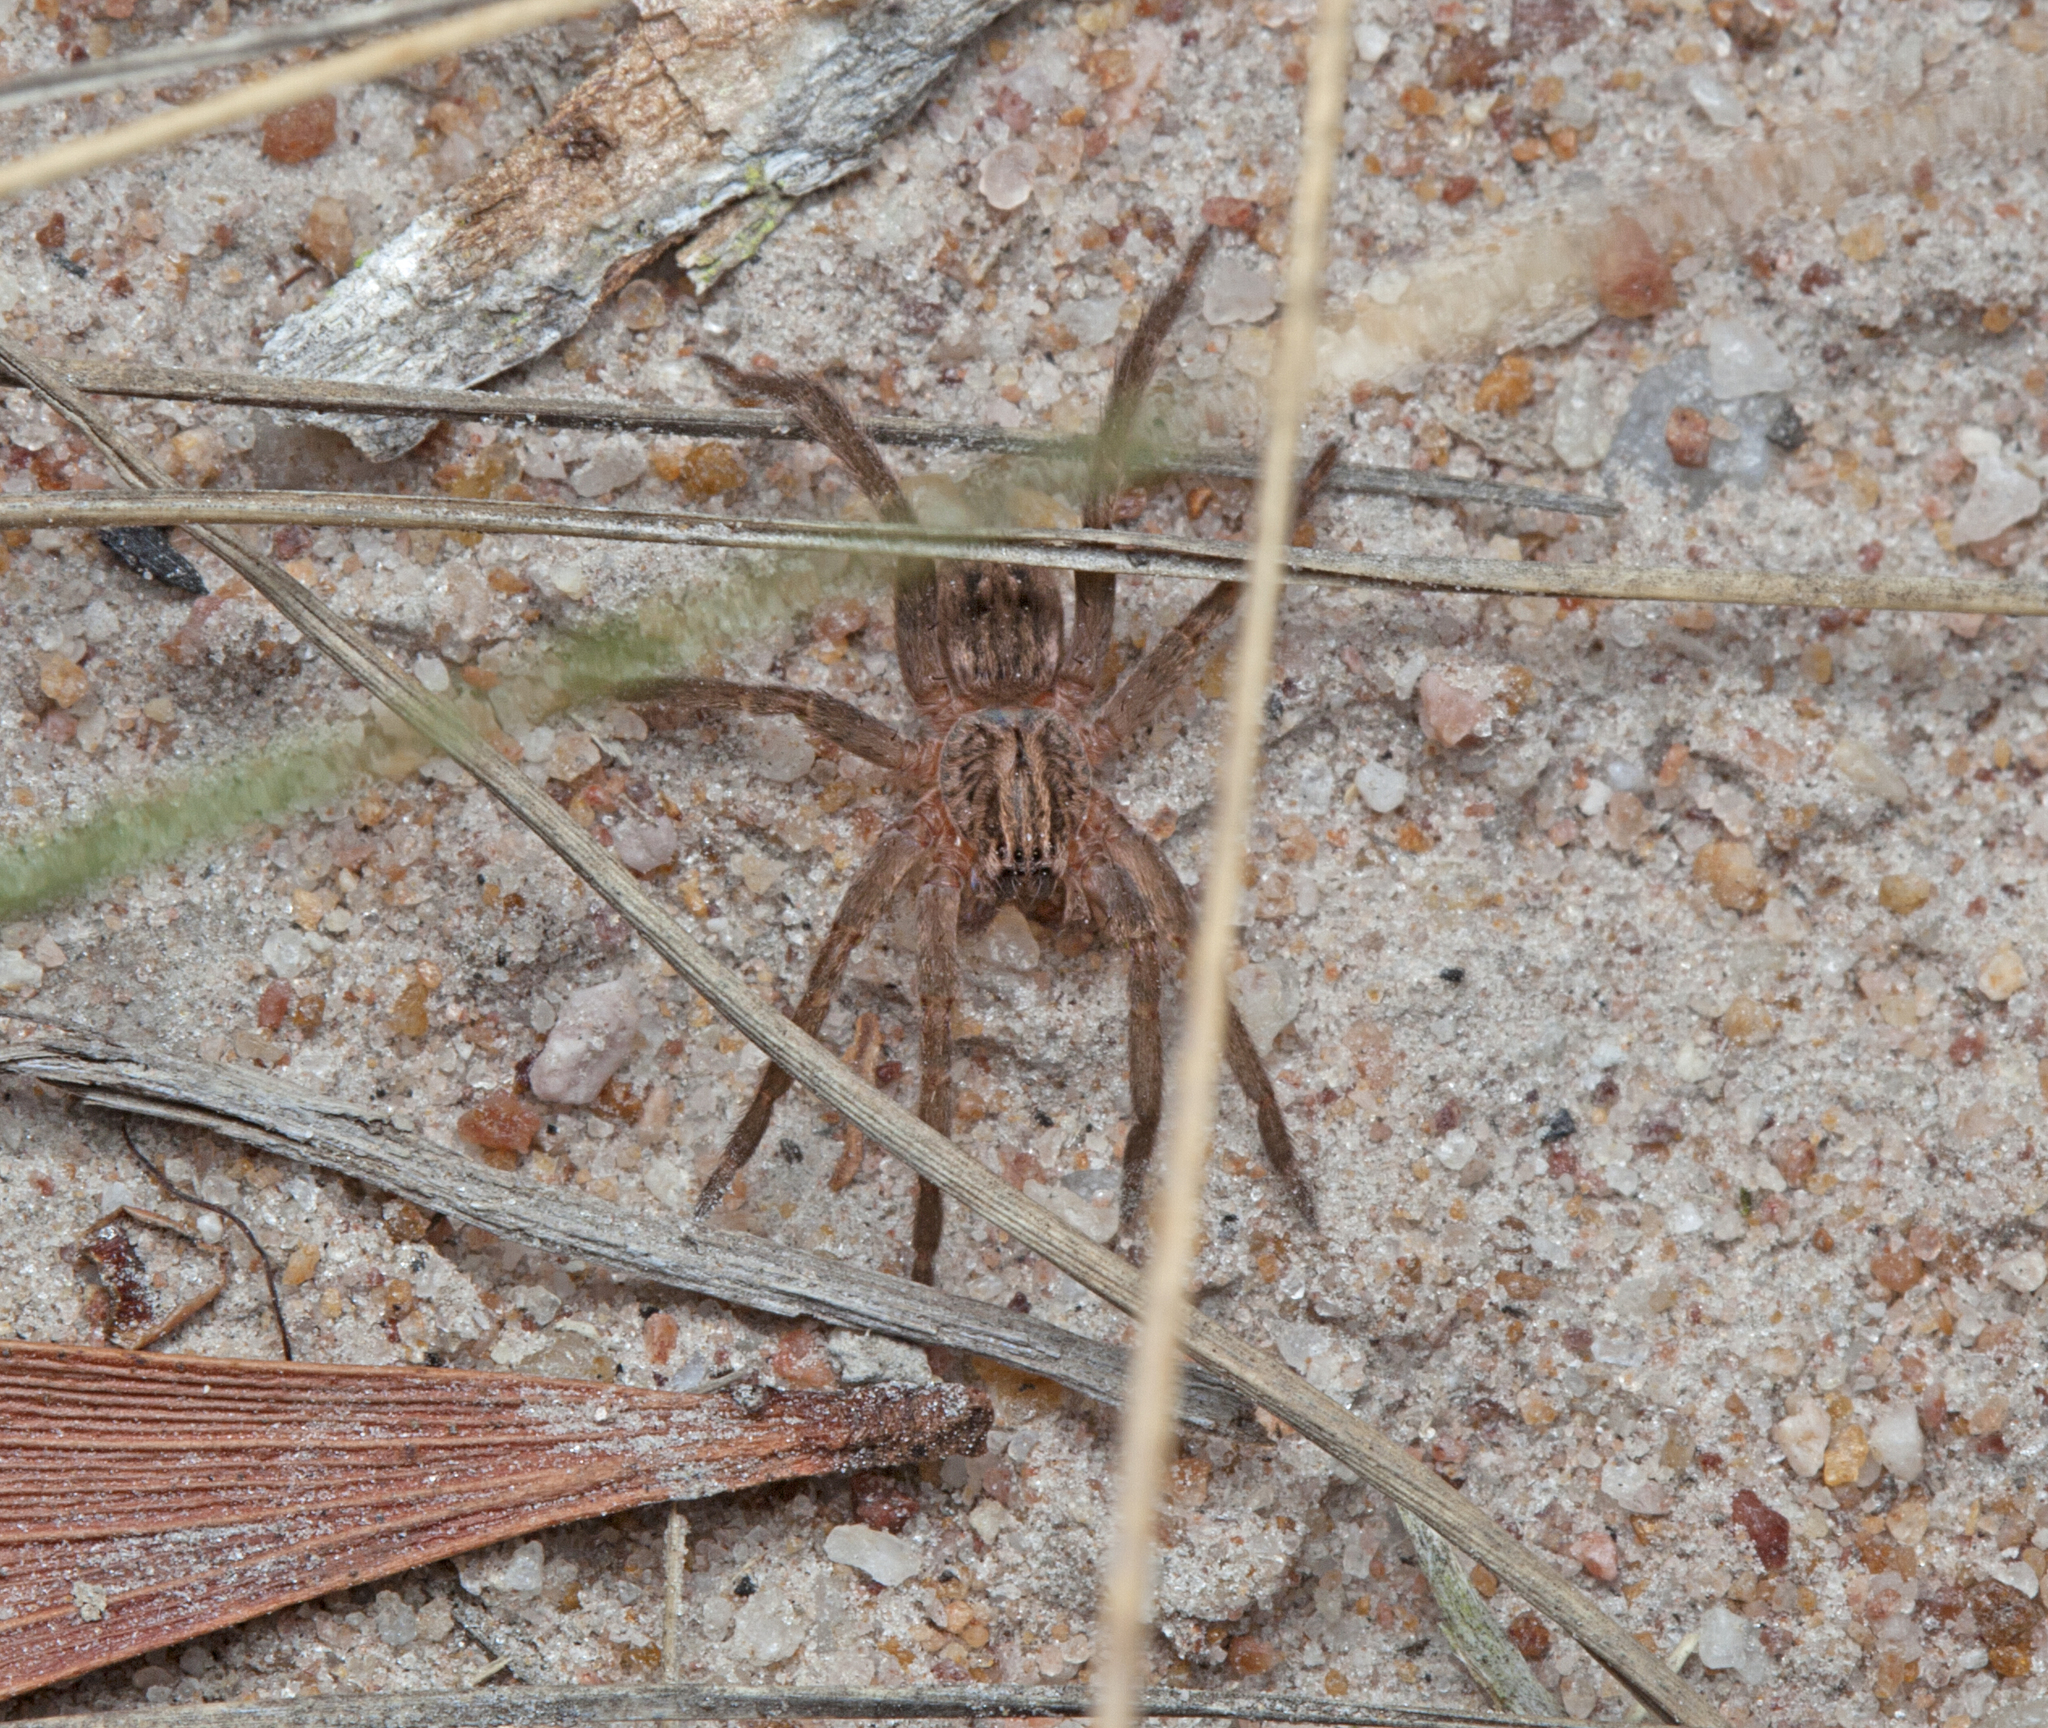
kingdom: Animalia
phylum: Arthropoda
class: Arachnida
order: Araneae
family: Miturgidae
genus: Mituliodon
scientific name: Mituliodon tarantulinus
